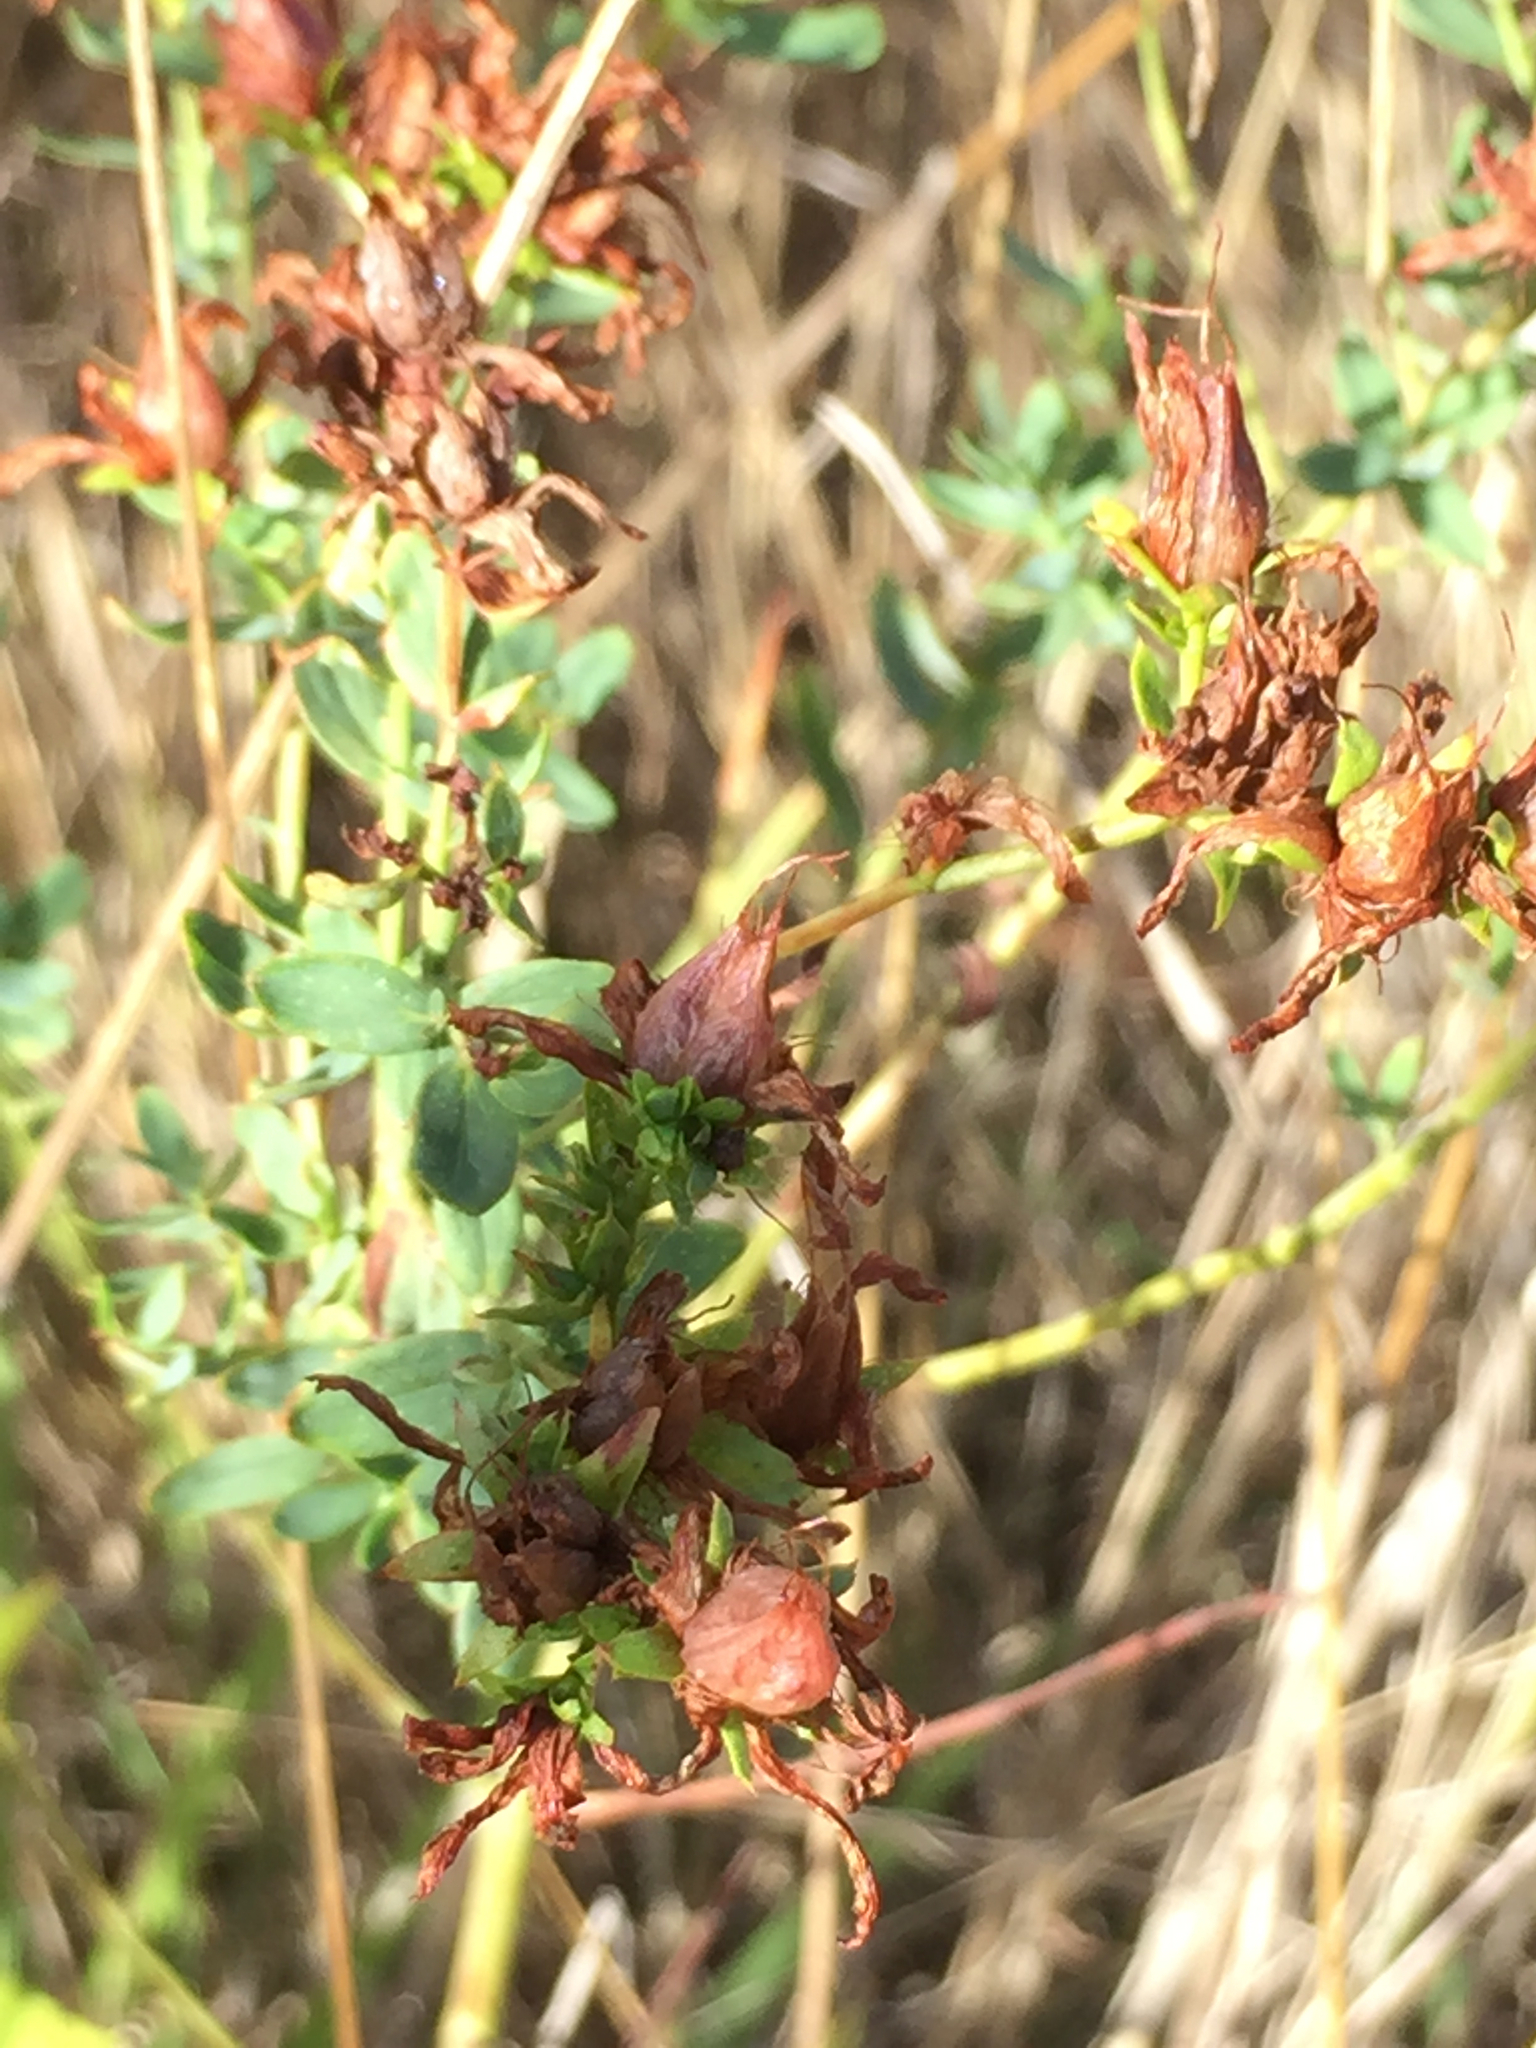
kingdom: Plantae
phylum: Tracheophyta
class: Magnoliopsida
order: Malpighiales
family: Hypericaceae
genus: Hypericum
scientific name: Hypericum perforatum
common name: Common st. johnswort
